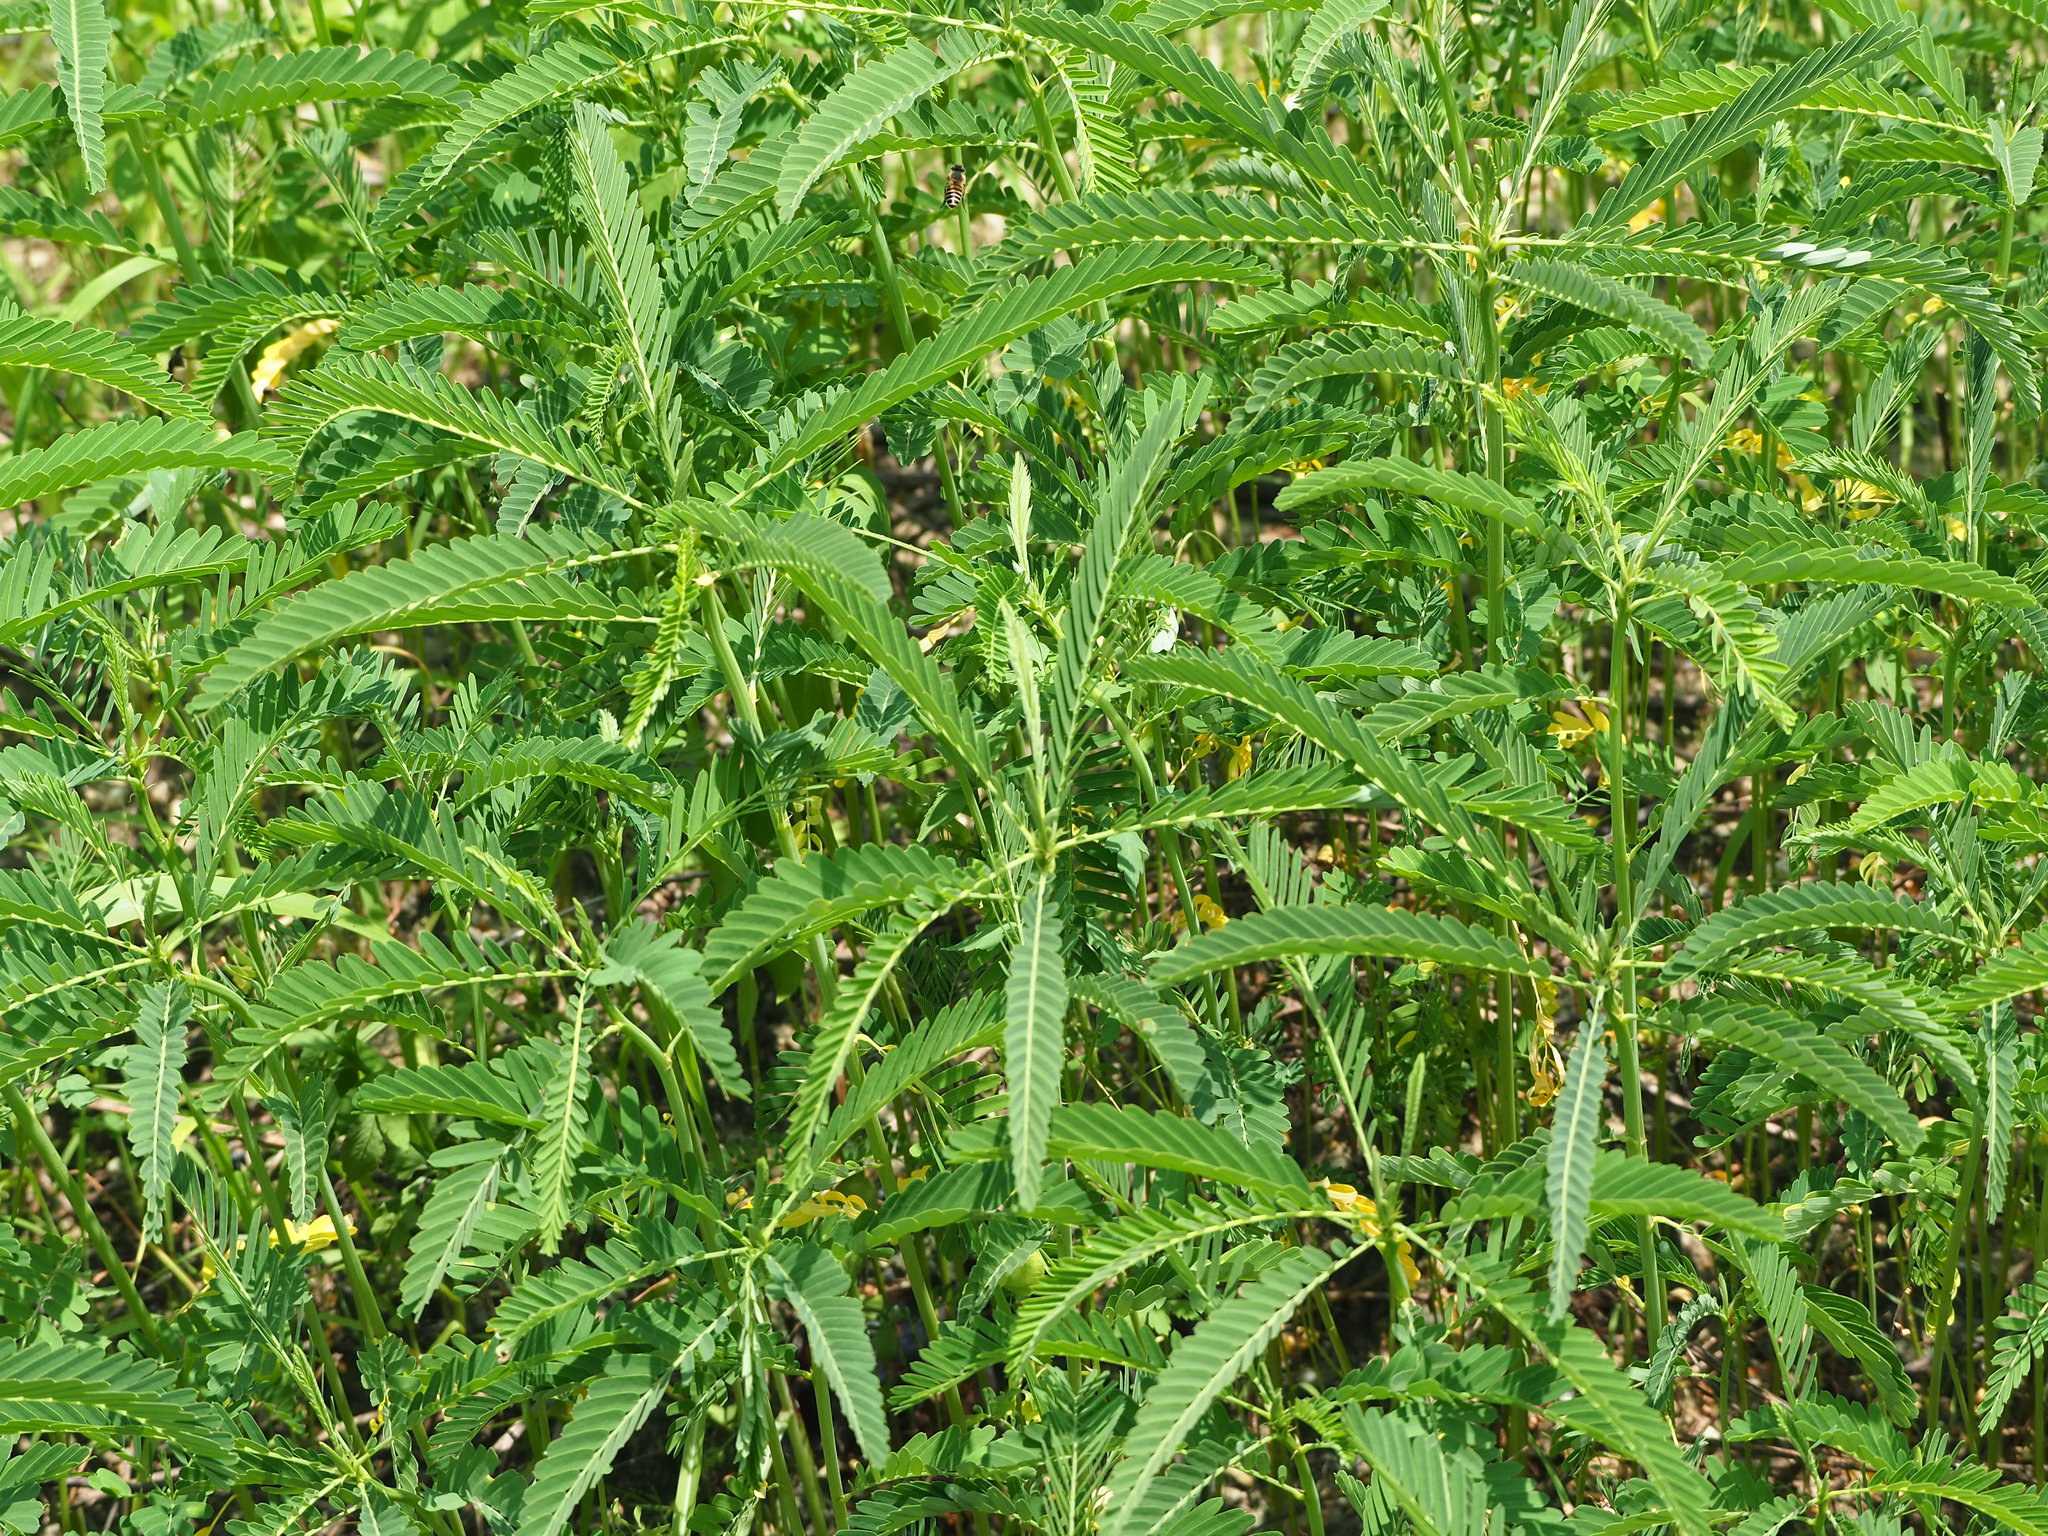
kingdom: Plantae
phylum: Tracheophyta
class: Magnoliopsida
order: Fabales
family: Fabaceae
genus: Sesbania
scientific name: Sesbania cannabina
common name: Canicha
